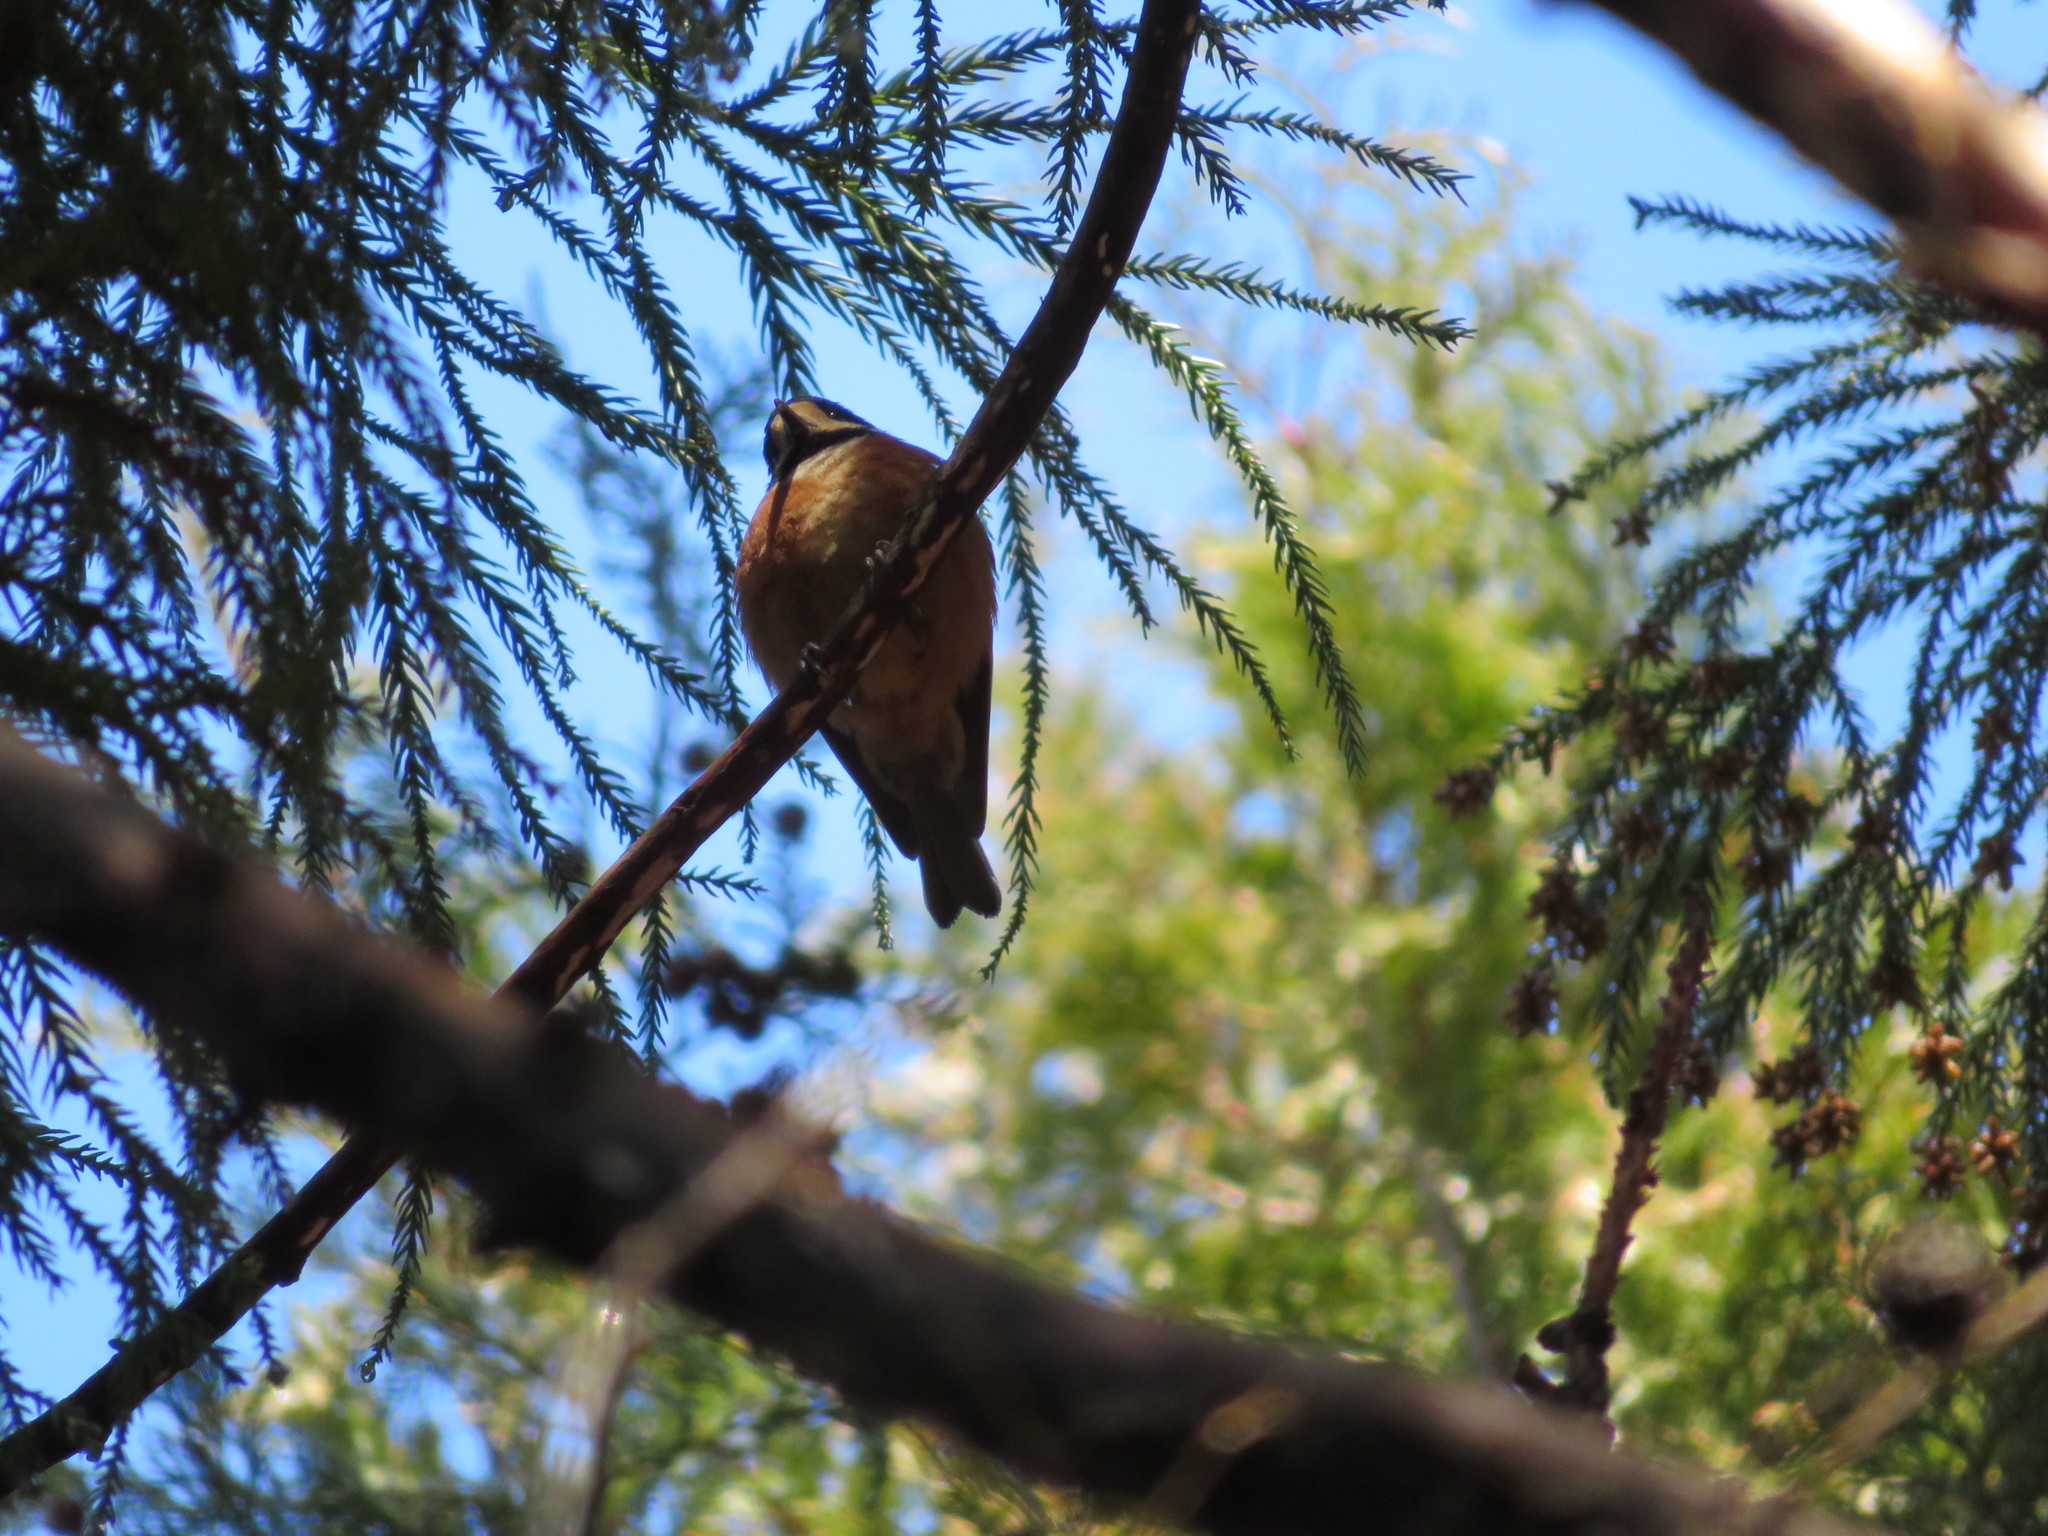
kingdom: Animalia
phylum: Chordata
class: Aves
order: Passeriformes
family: Paridae
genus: Poecile
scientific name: Poecile varius
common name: Varied tit
